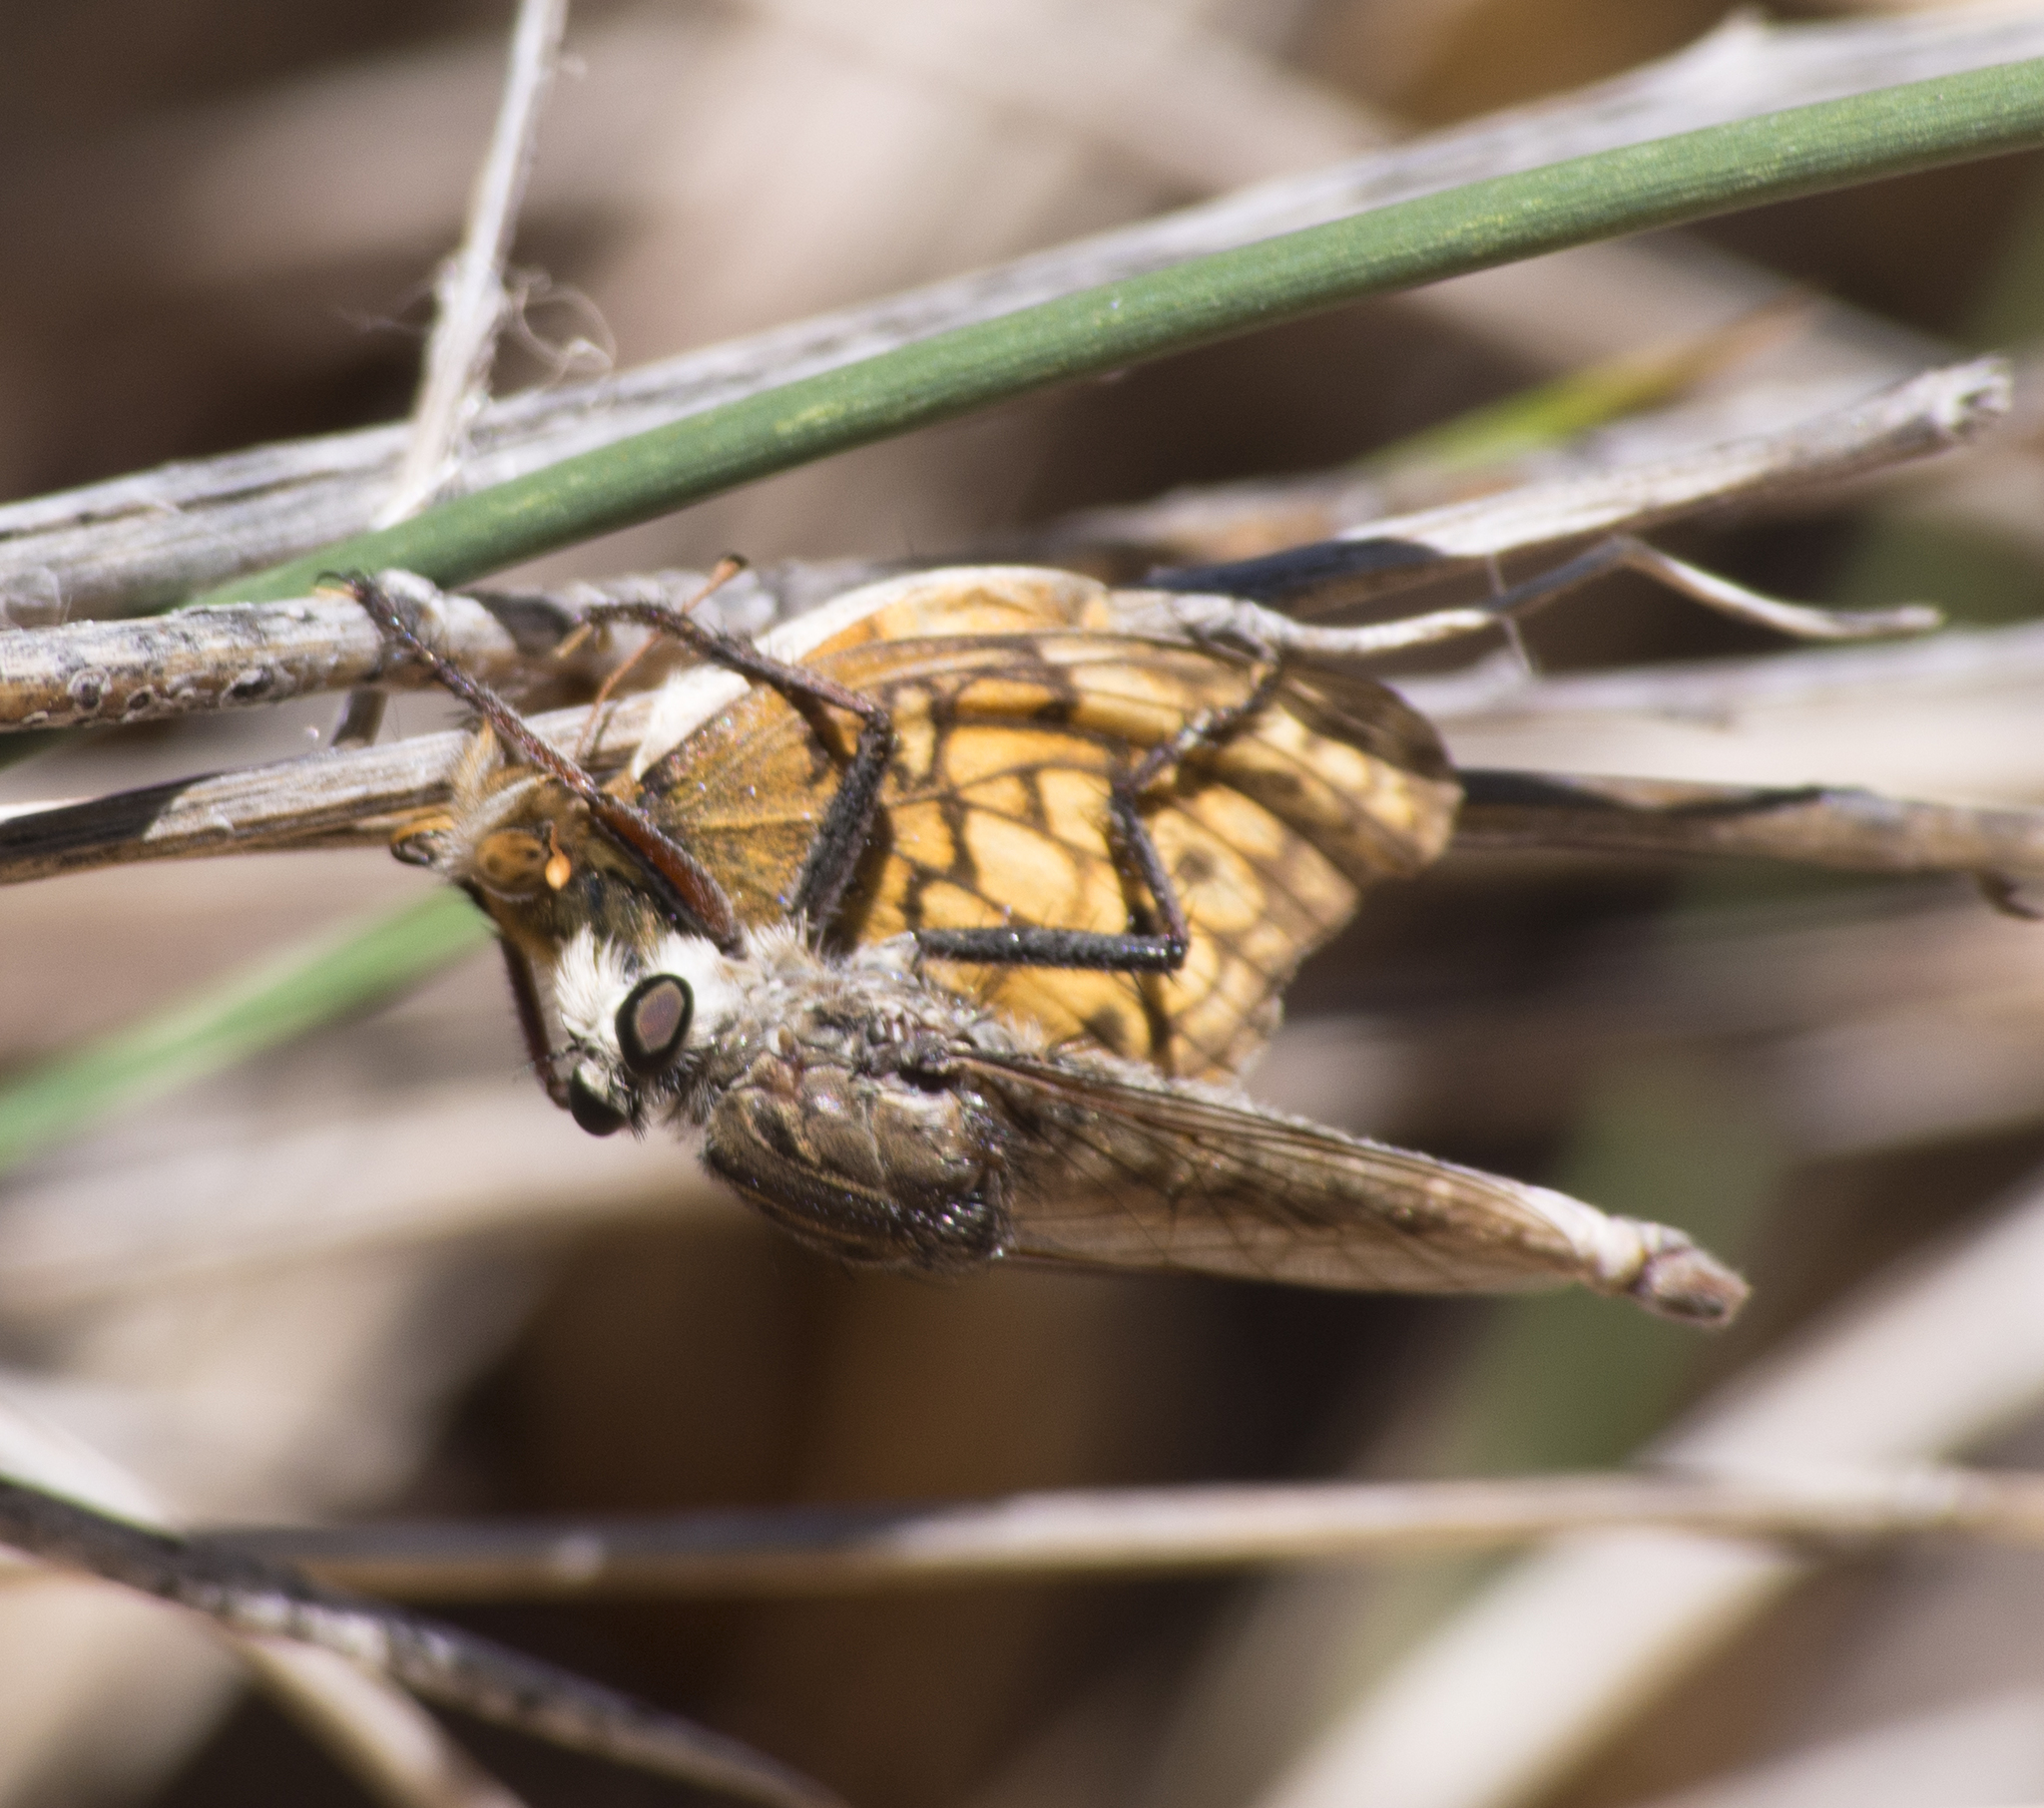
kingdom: Animalia
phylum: Arthropoda
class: Insecta
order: Lepidoptera
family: Nymphalidae
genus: Euptoieta
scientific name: Euptoieta claudia
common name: Variegated fritillary
